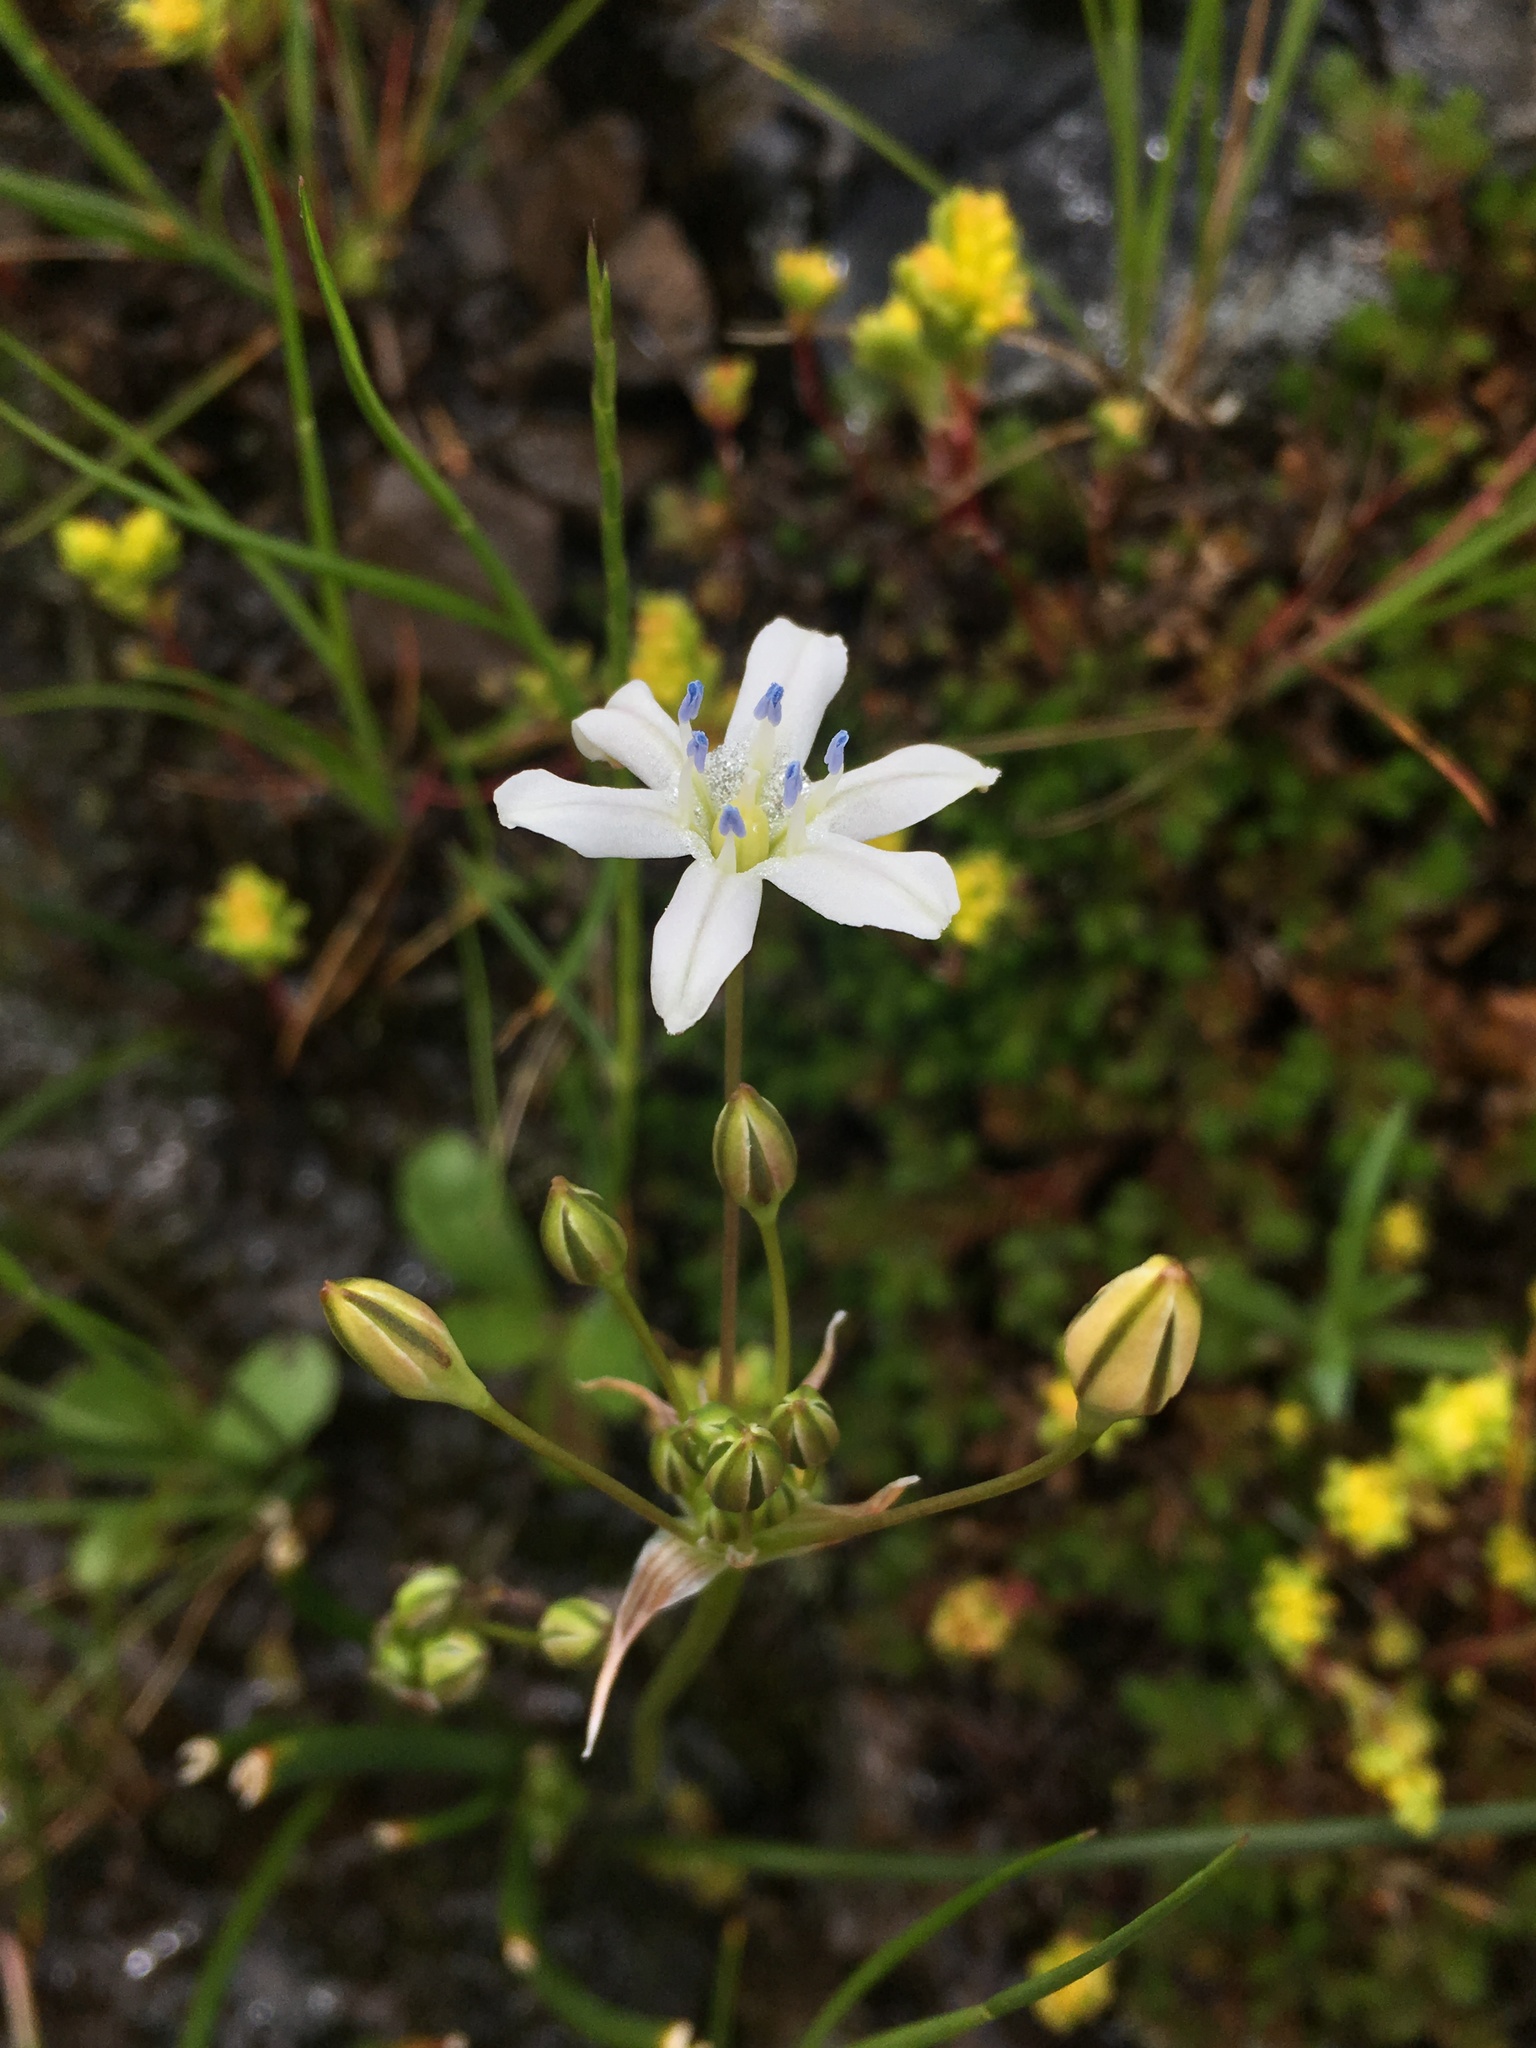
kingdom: Plantae
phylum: Tracheophyta
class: Liliopsida
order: Asparagales
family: Asparagaceae
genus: Triteleia
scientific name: Triteleia lilacina
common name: Lilac-flower wild hyacinth
